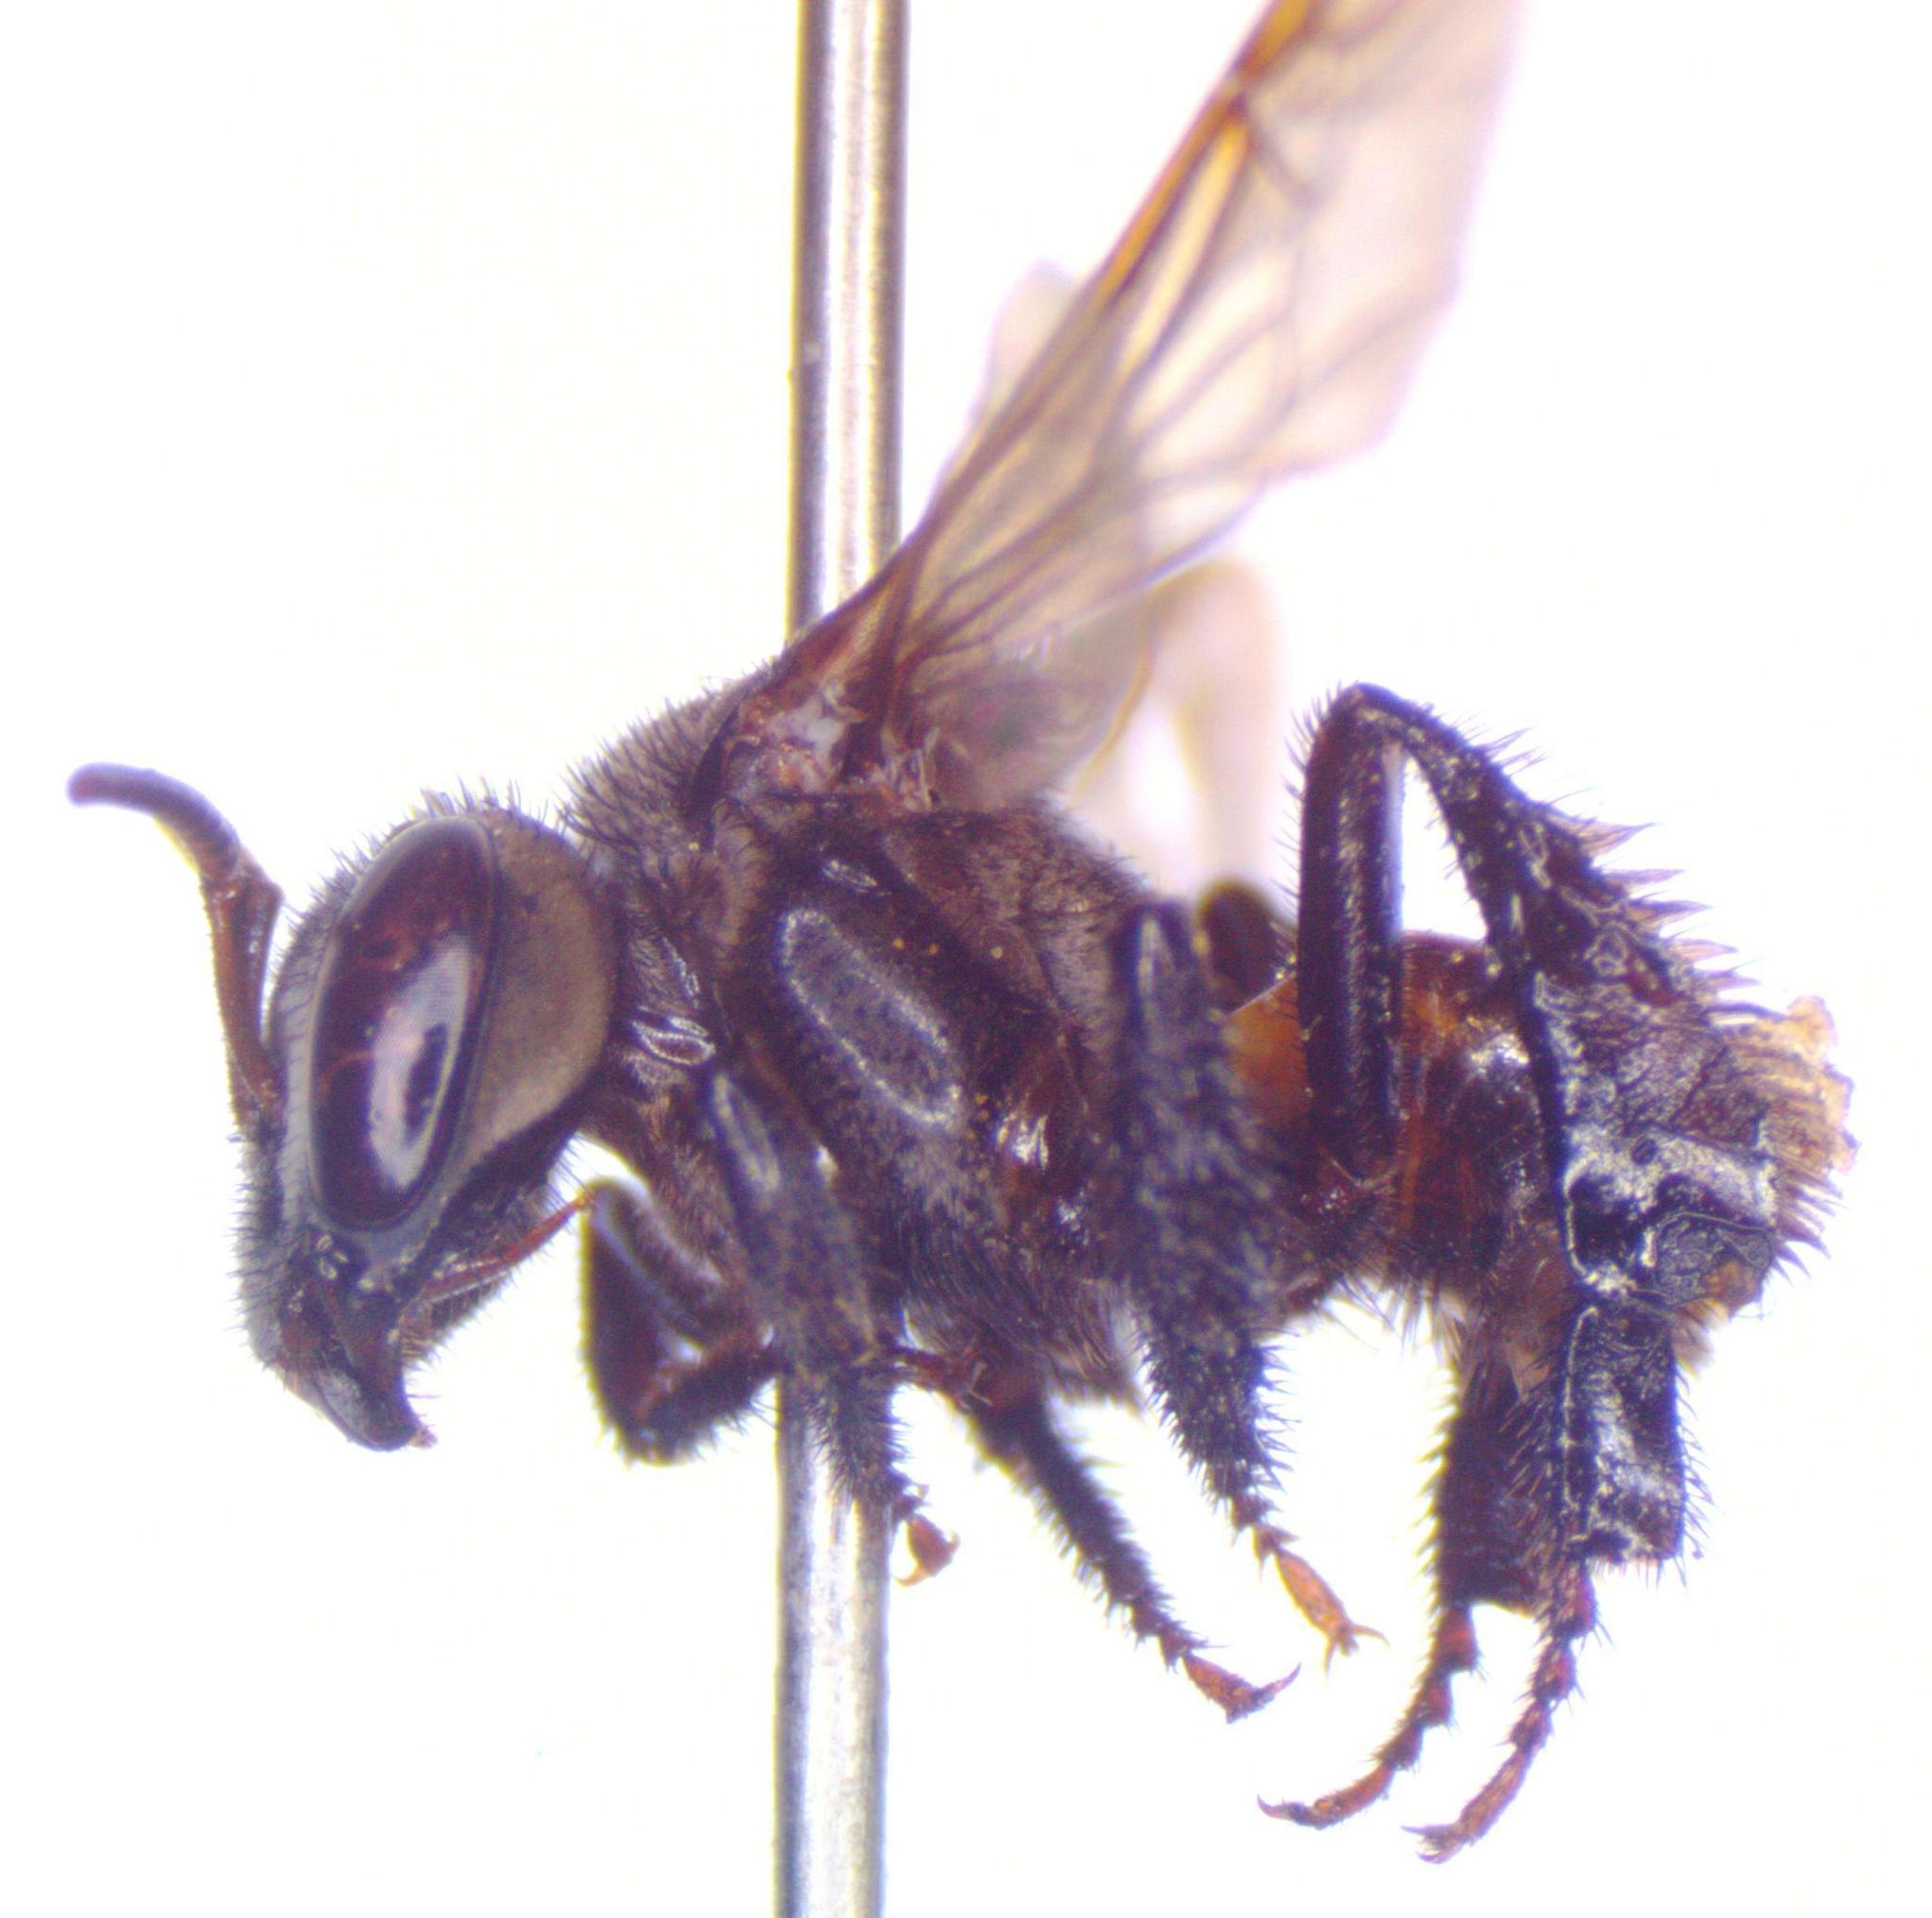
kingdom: Animalia
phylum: Arthropoda
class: Insecta
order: Hymenoptera
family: Apidae
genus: Trigona
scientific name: Trigona fulviventris
